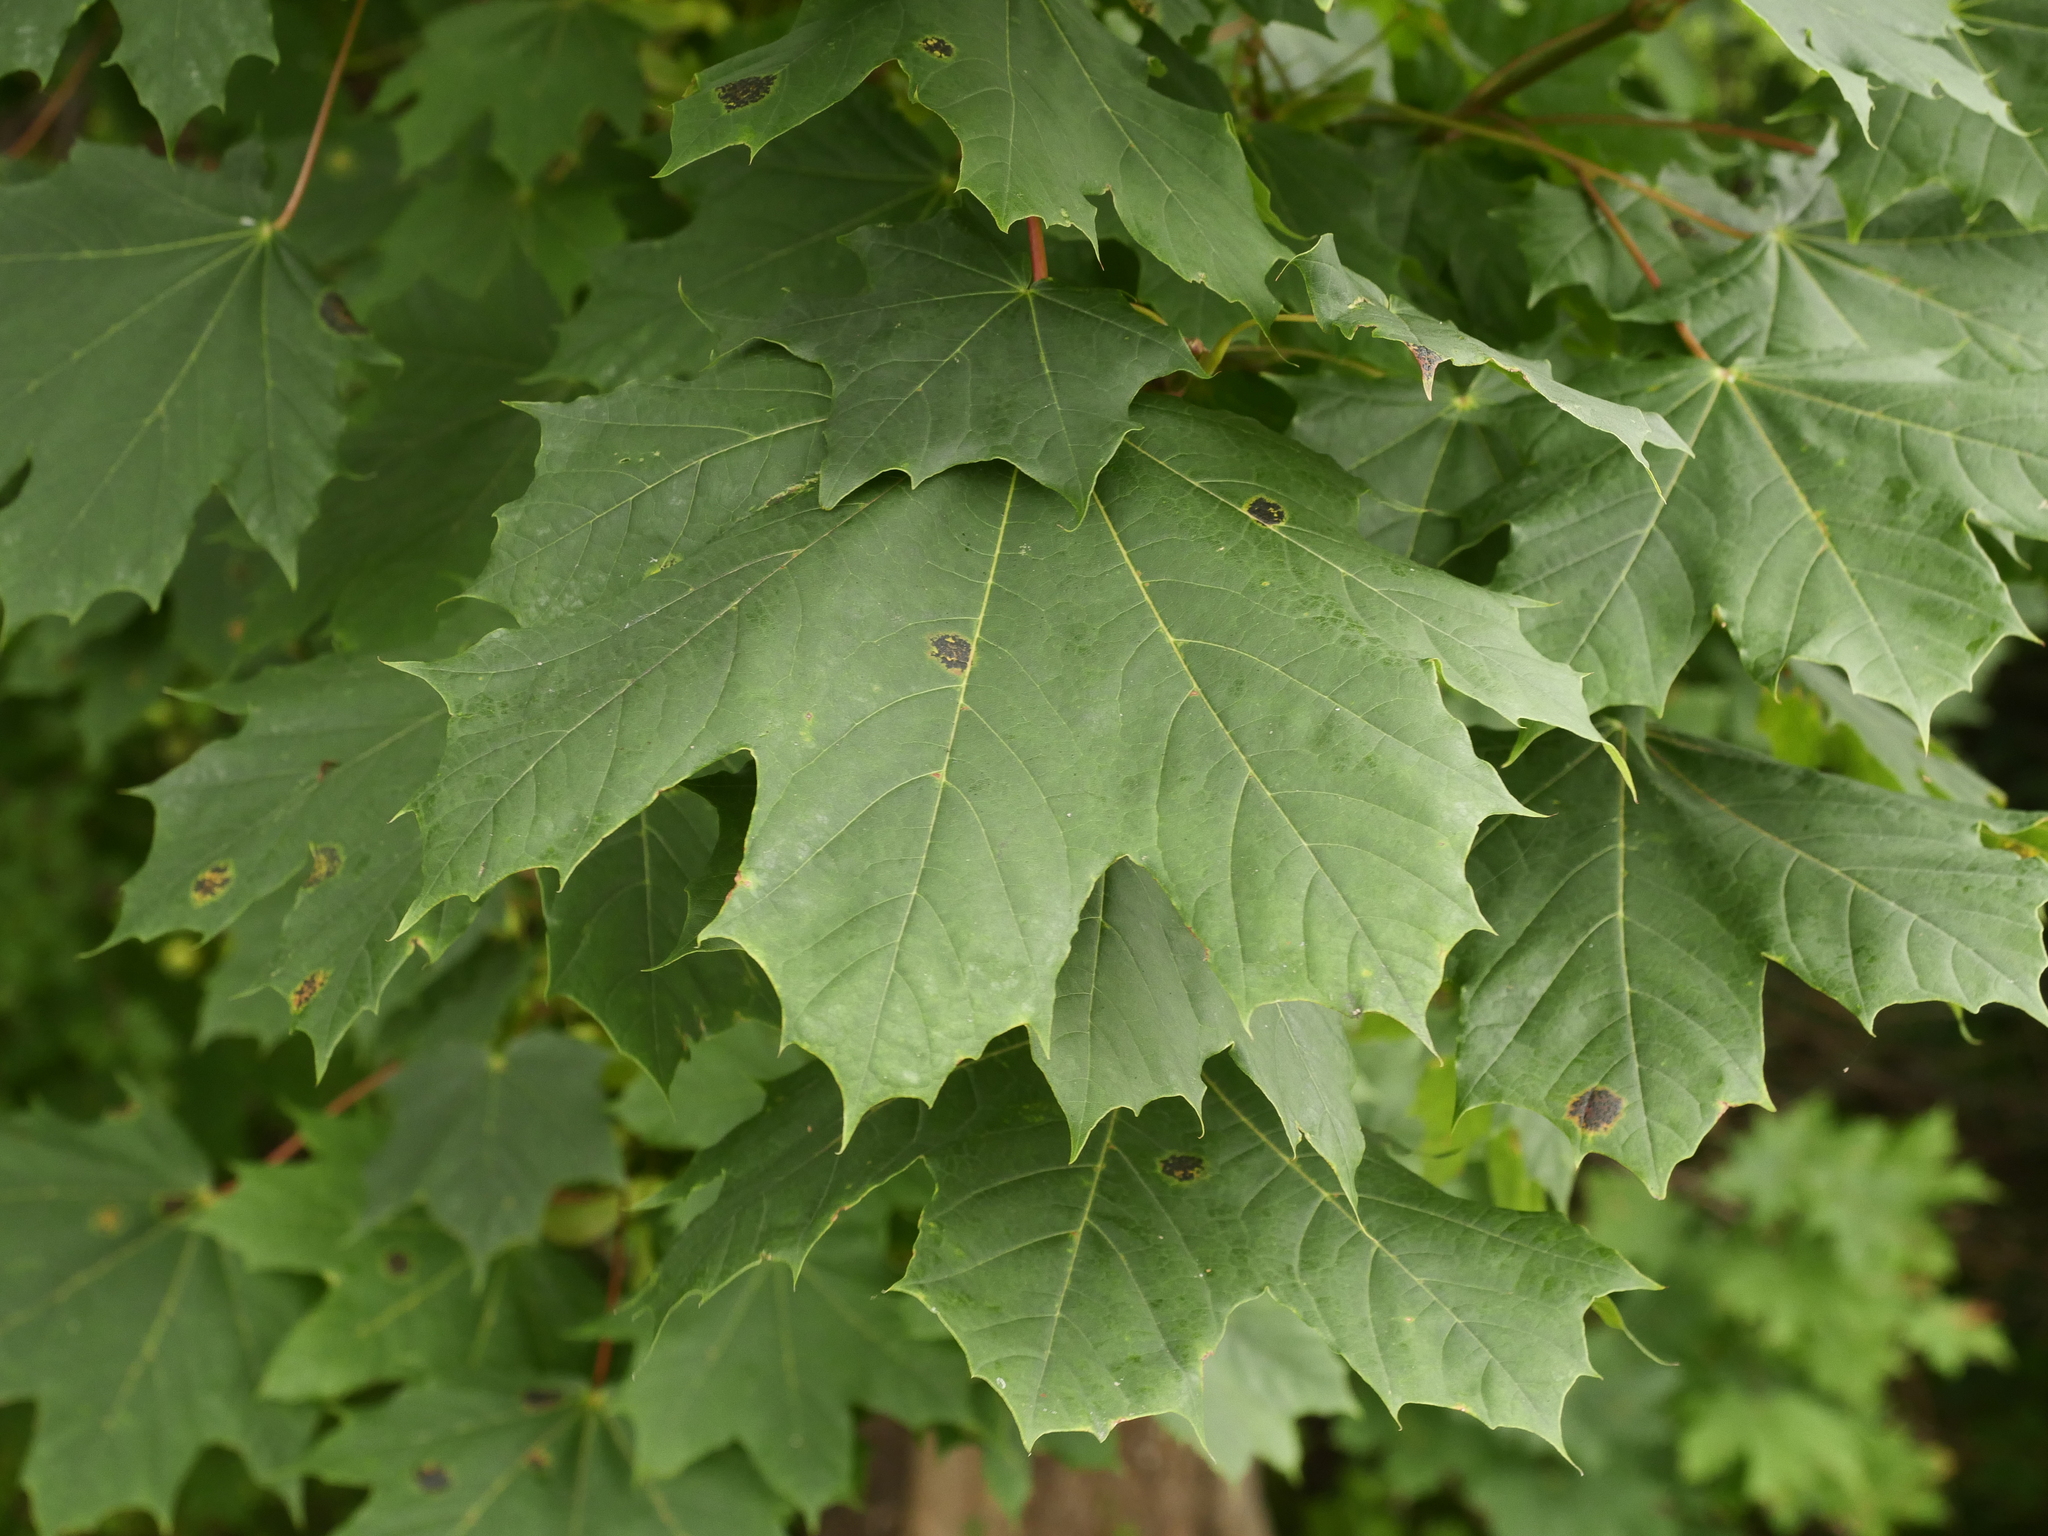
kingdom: Plantae
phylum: Tracheophyta
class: Magnoliopsida
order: Sapindales
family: Sapindaceae
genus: Acer
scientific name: Acer platanoides
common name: Norway maple
